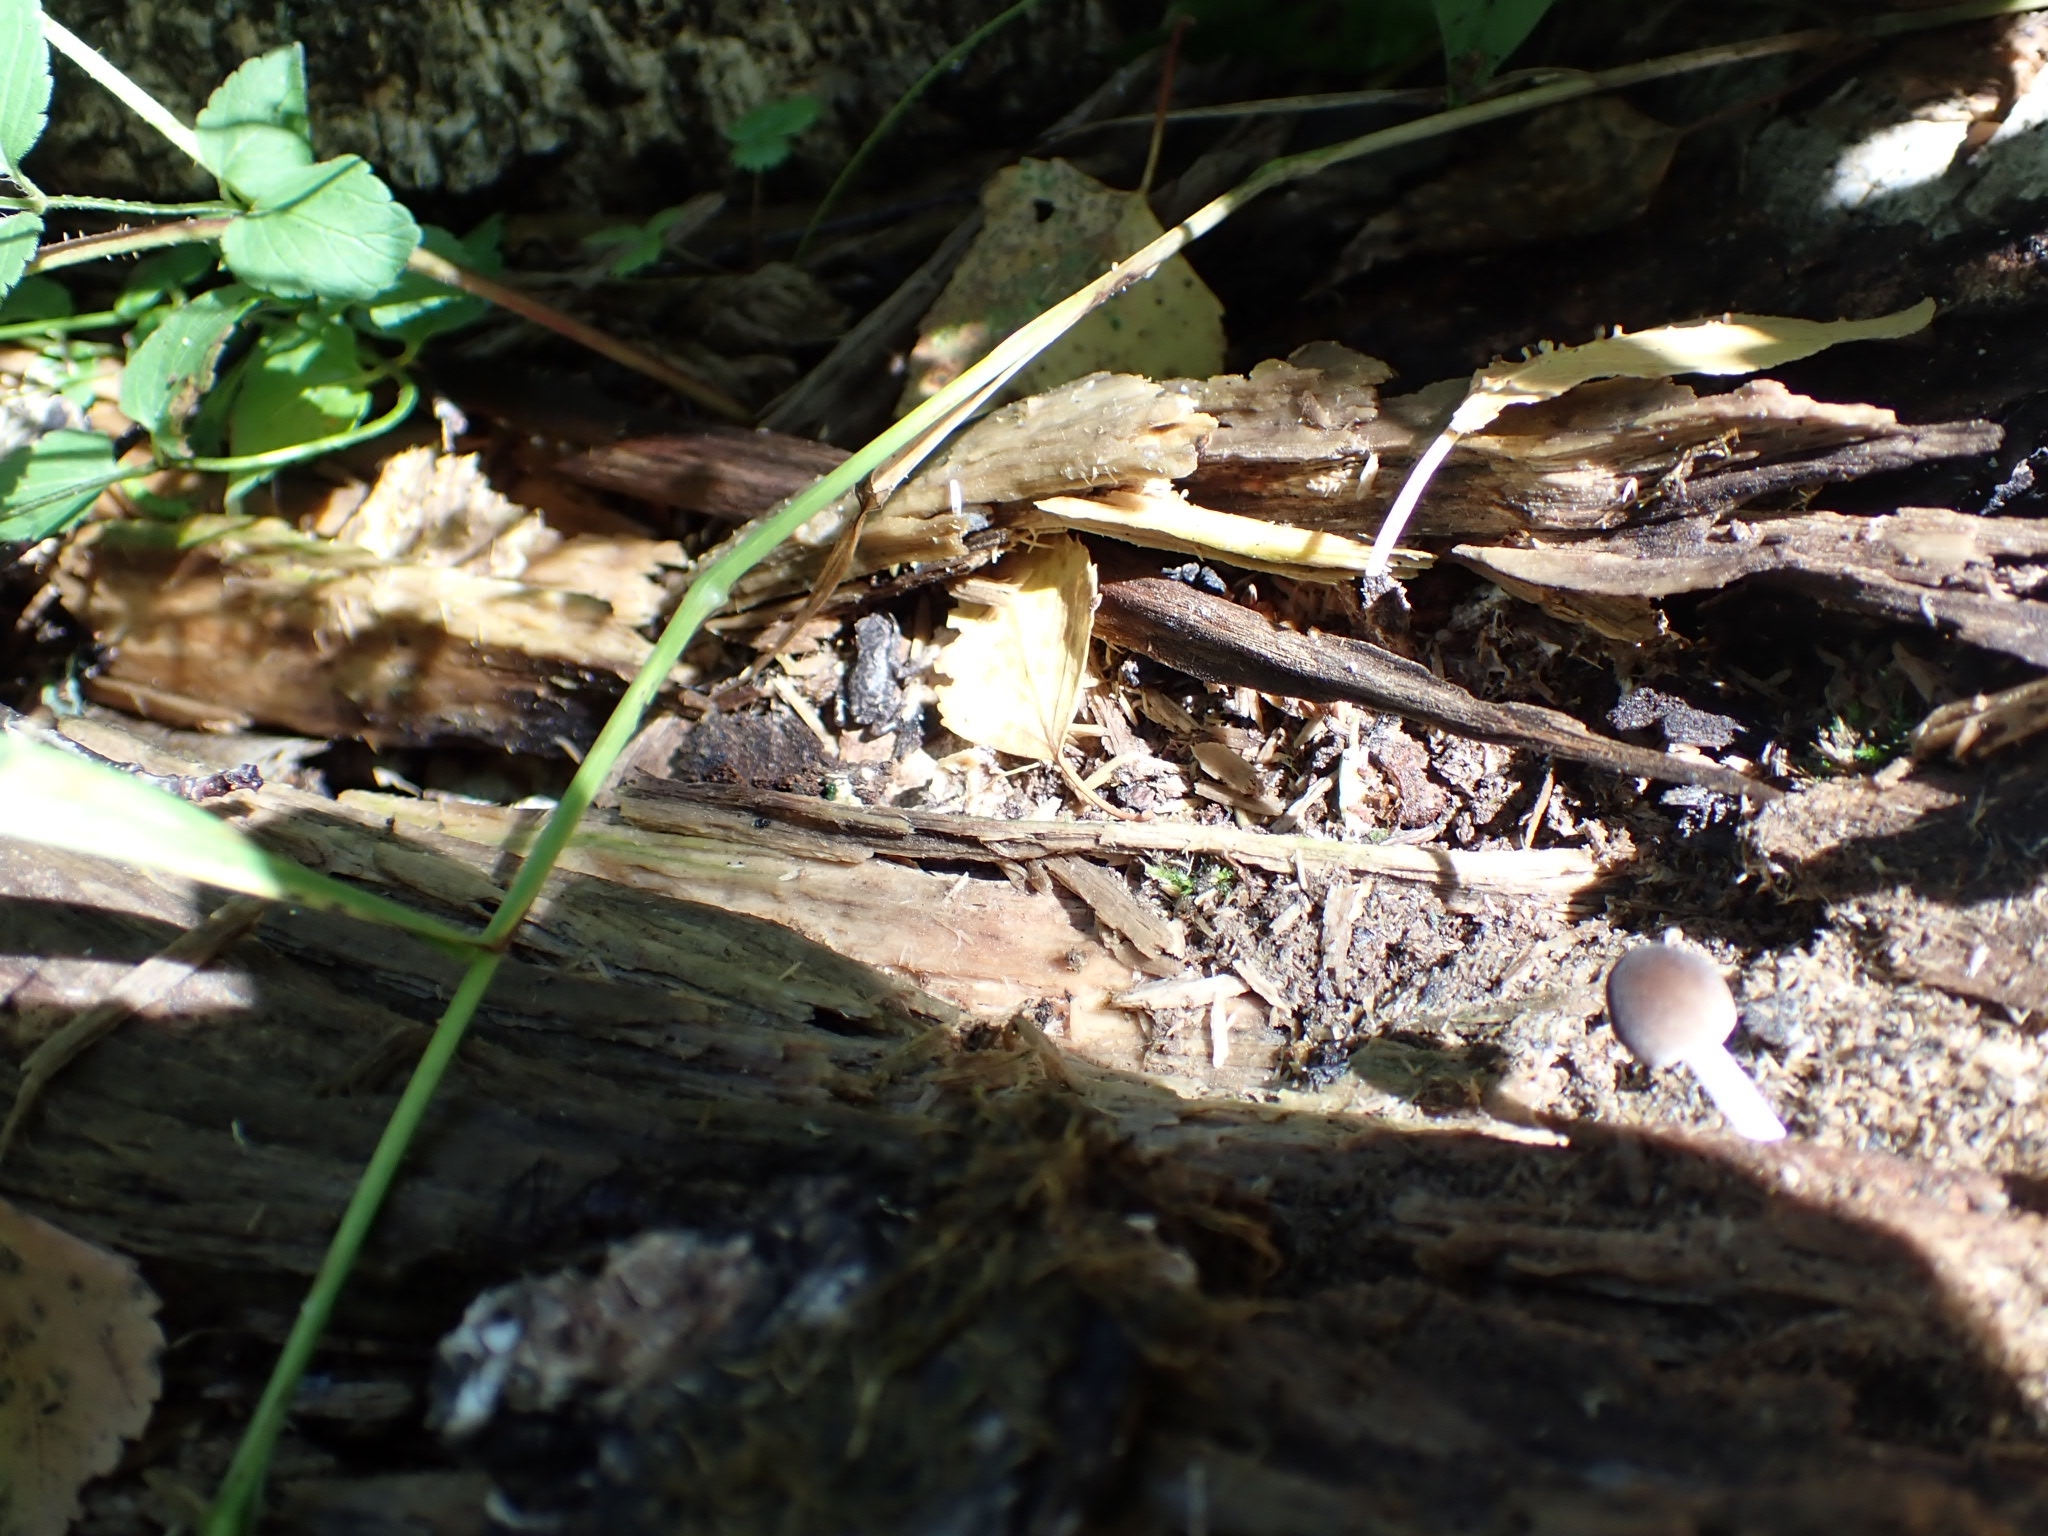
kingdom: Animalia
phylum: Chordata
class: Amphibia
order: Anura
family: Bufonidae
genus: Bufo
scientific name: Bufo bufo
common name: Common toad
